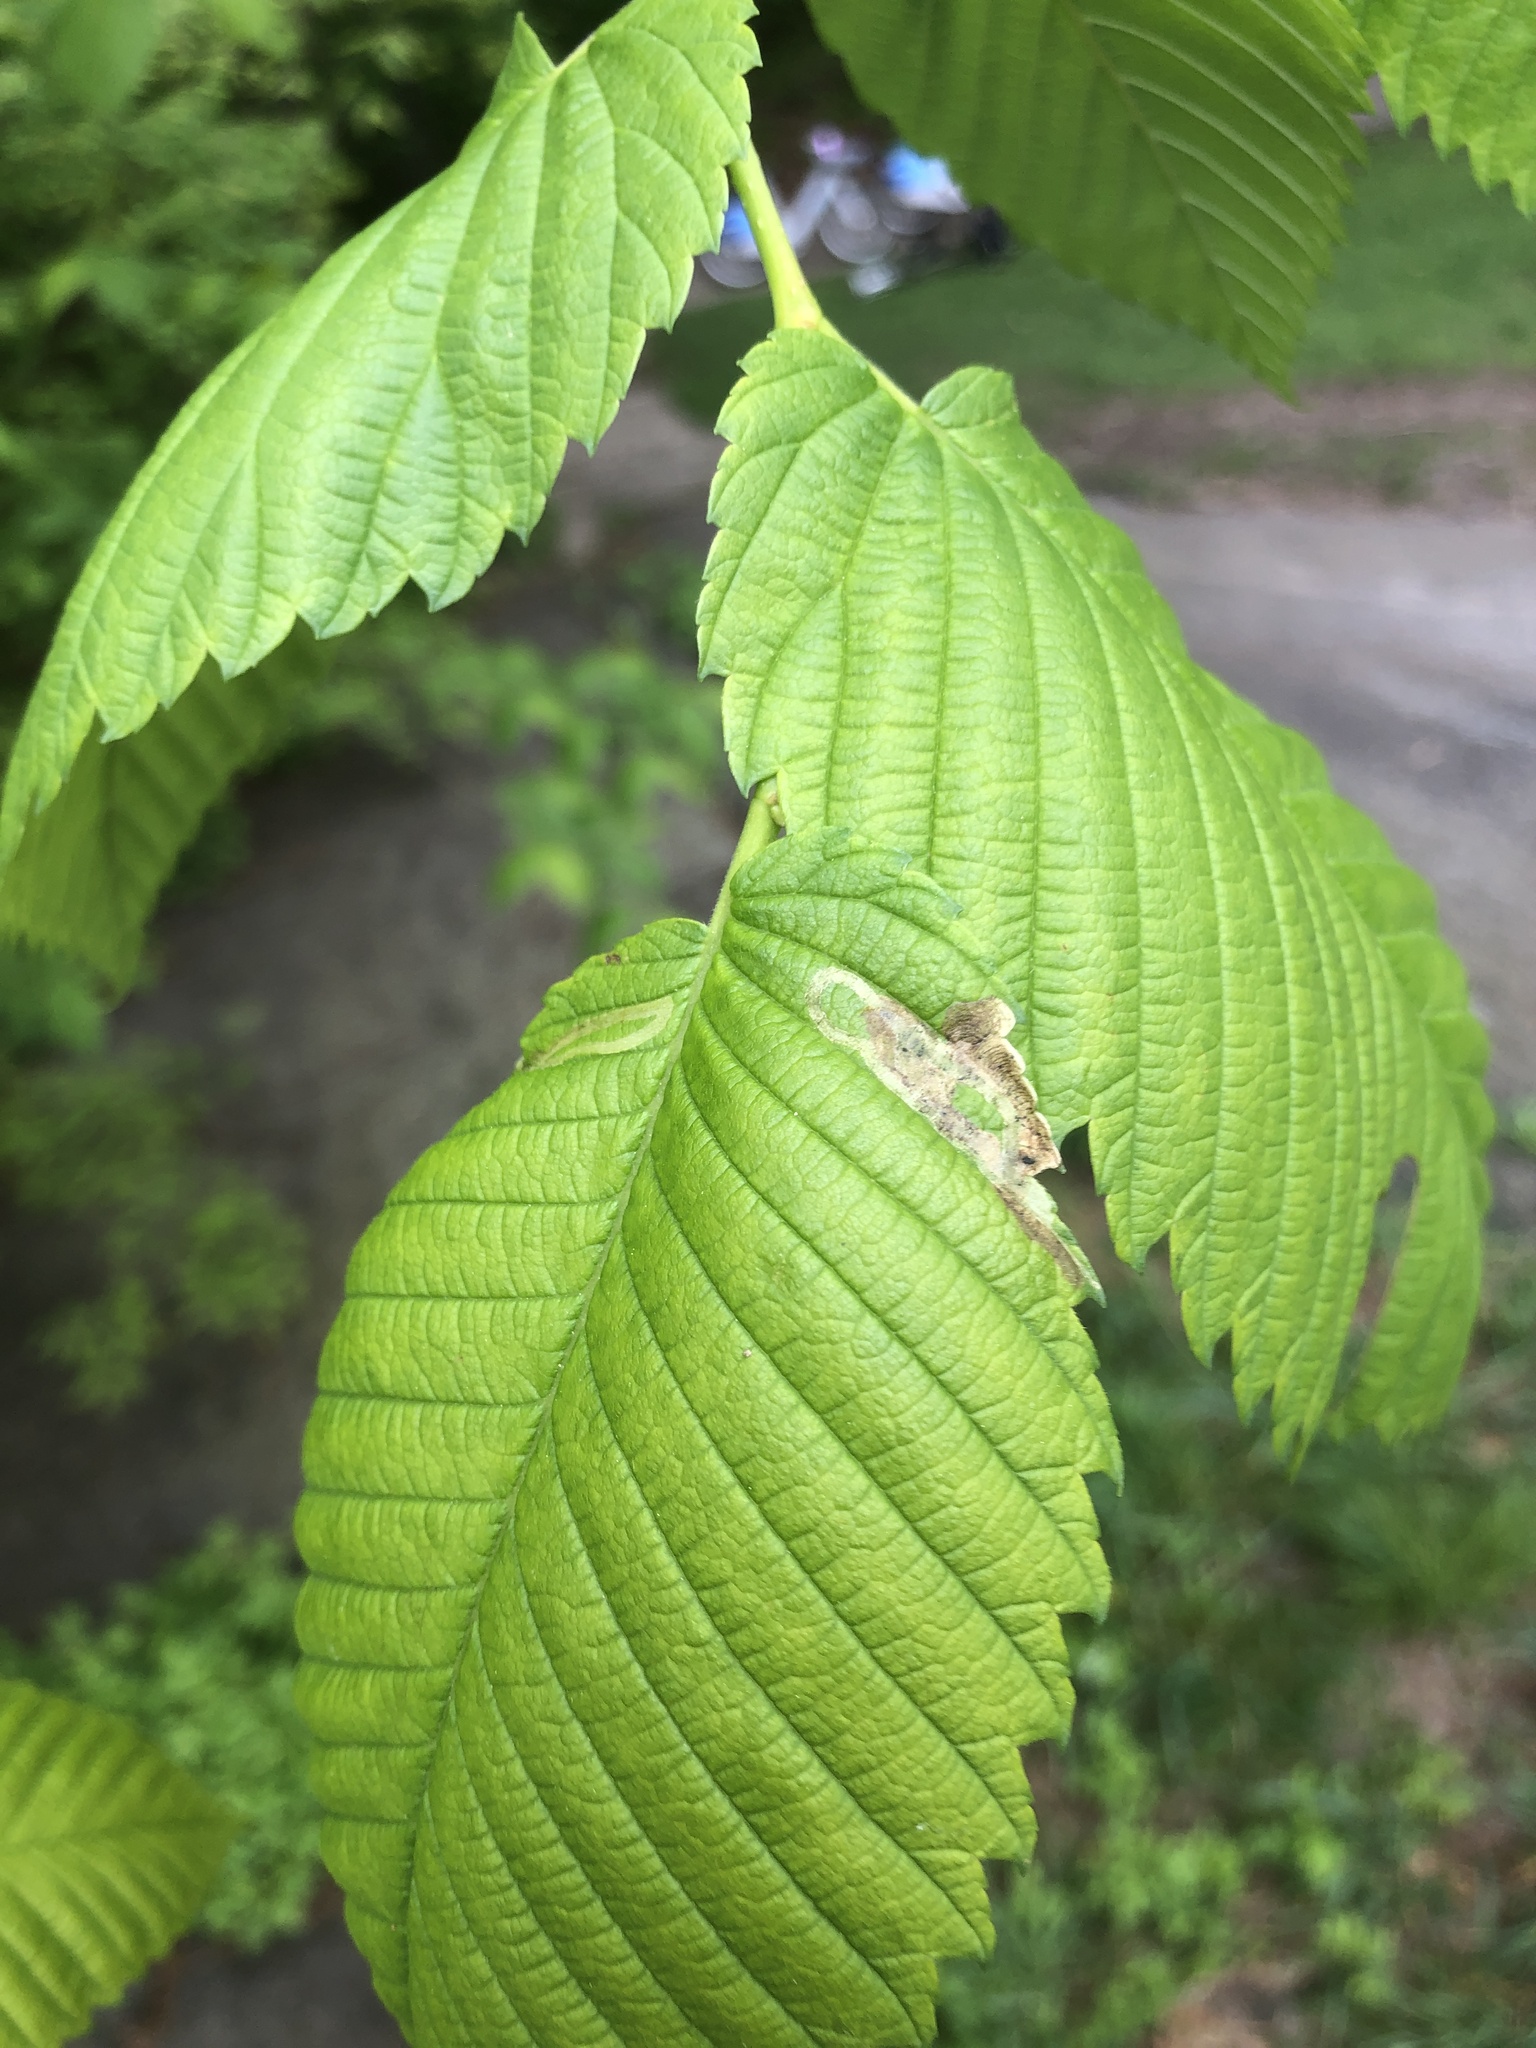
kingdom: Animalia
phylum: Arthropoda
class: Insecta
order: Diptera
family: Agromyzidae
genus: Agromyza
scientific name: Agromyza aristata
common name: Elm agromyzid leafminer
